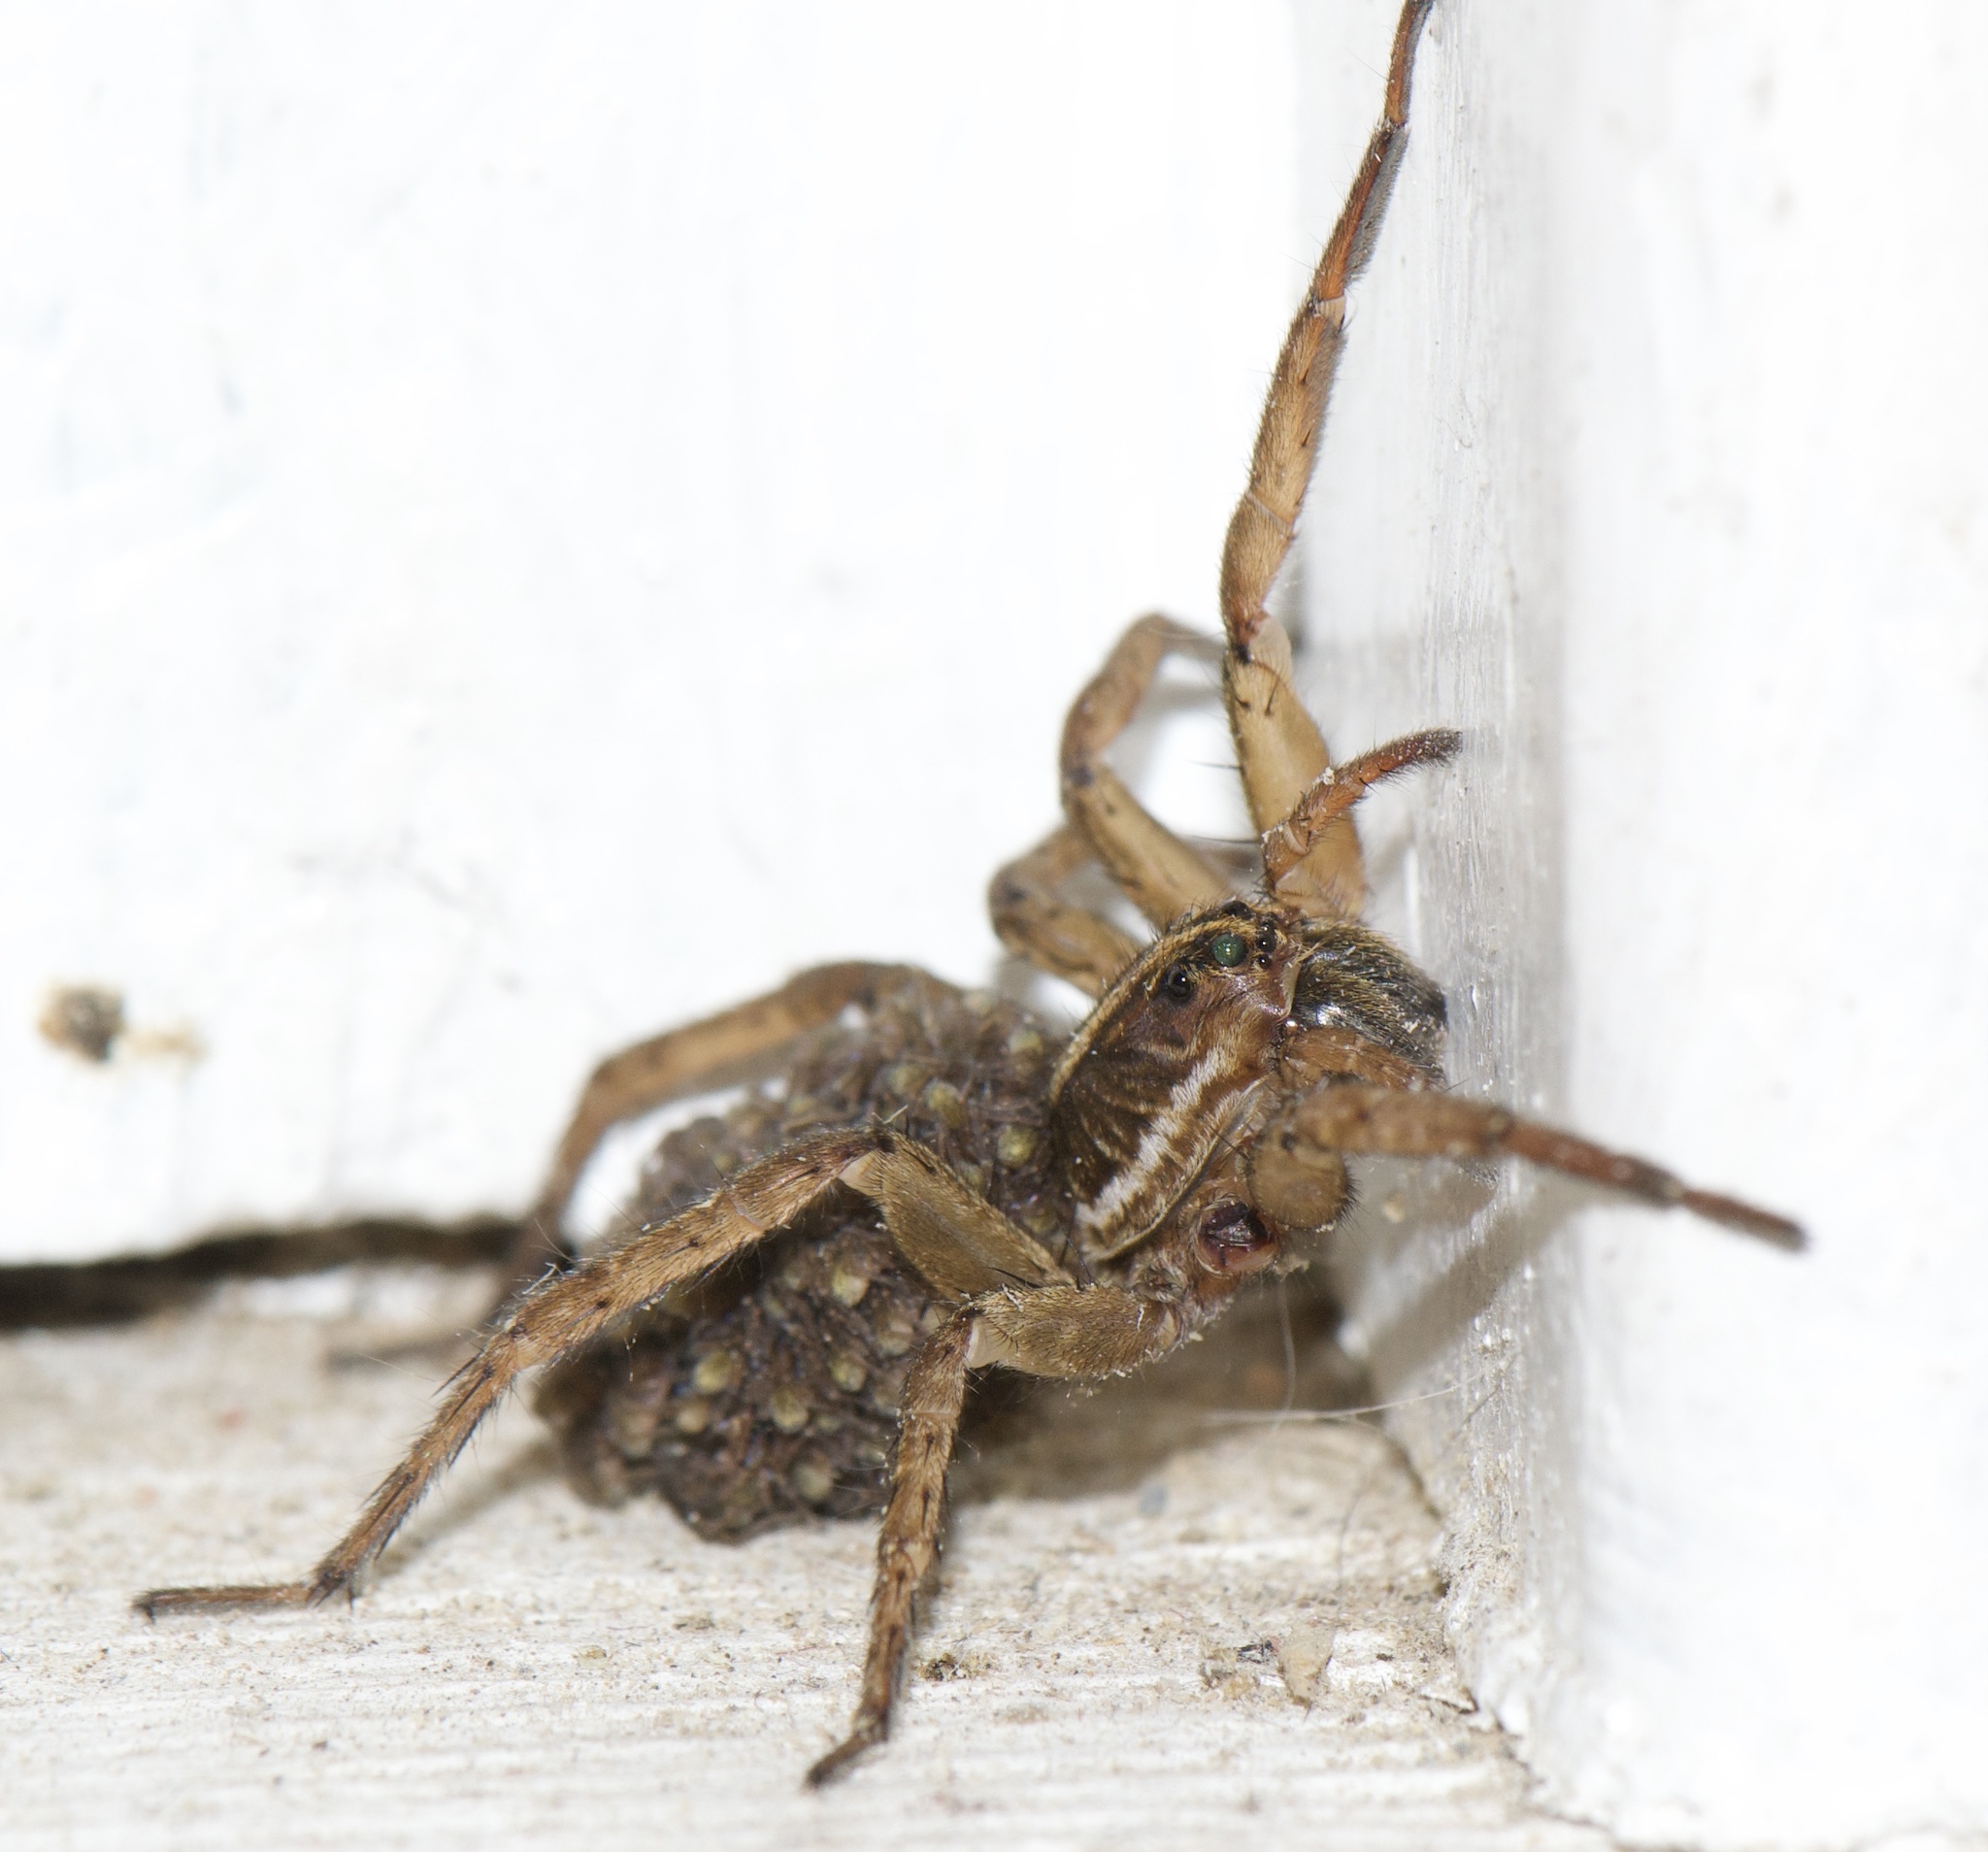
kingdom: Animalia
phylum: Arthropoda
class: Arachnida
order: Araneae
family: Lycosidae
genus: Tigrosa
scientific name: Tigrosa annexa
